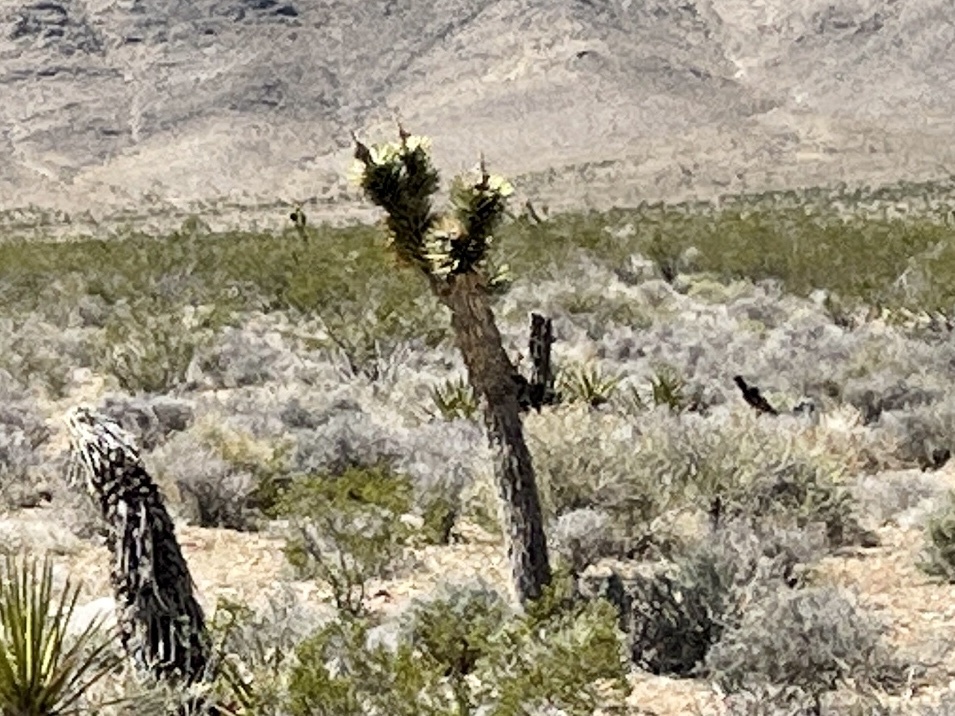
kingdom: Plantae
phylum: Tracheophyta
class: Liliopsida
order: Asparagales
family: Asparagaceae
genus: Yucca
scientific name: Yucca brevifolia
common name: Joshua tree
